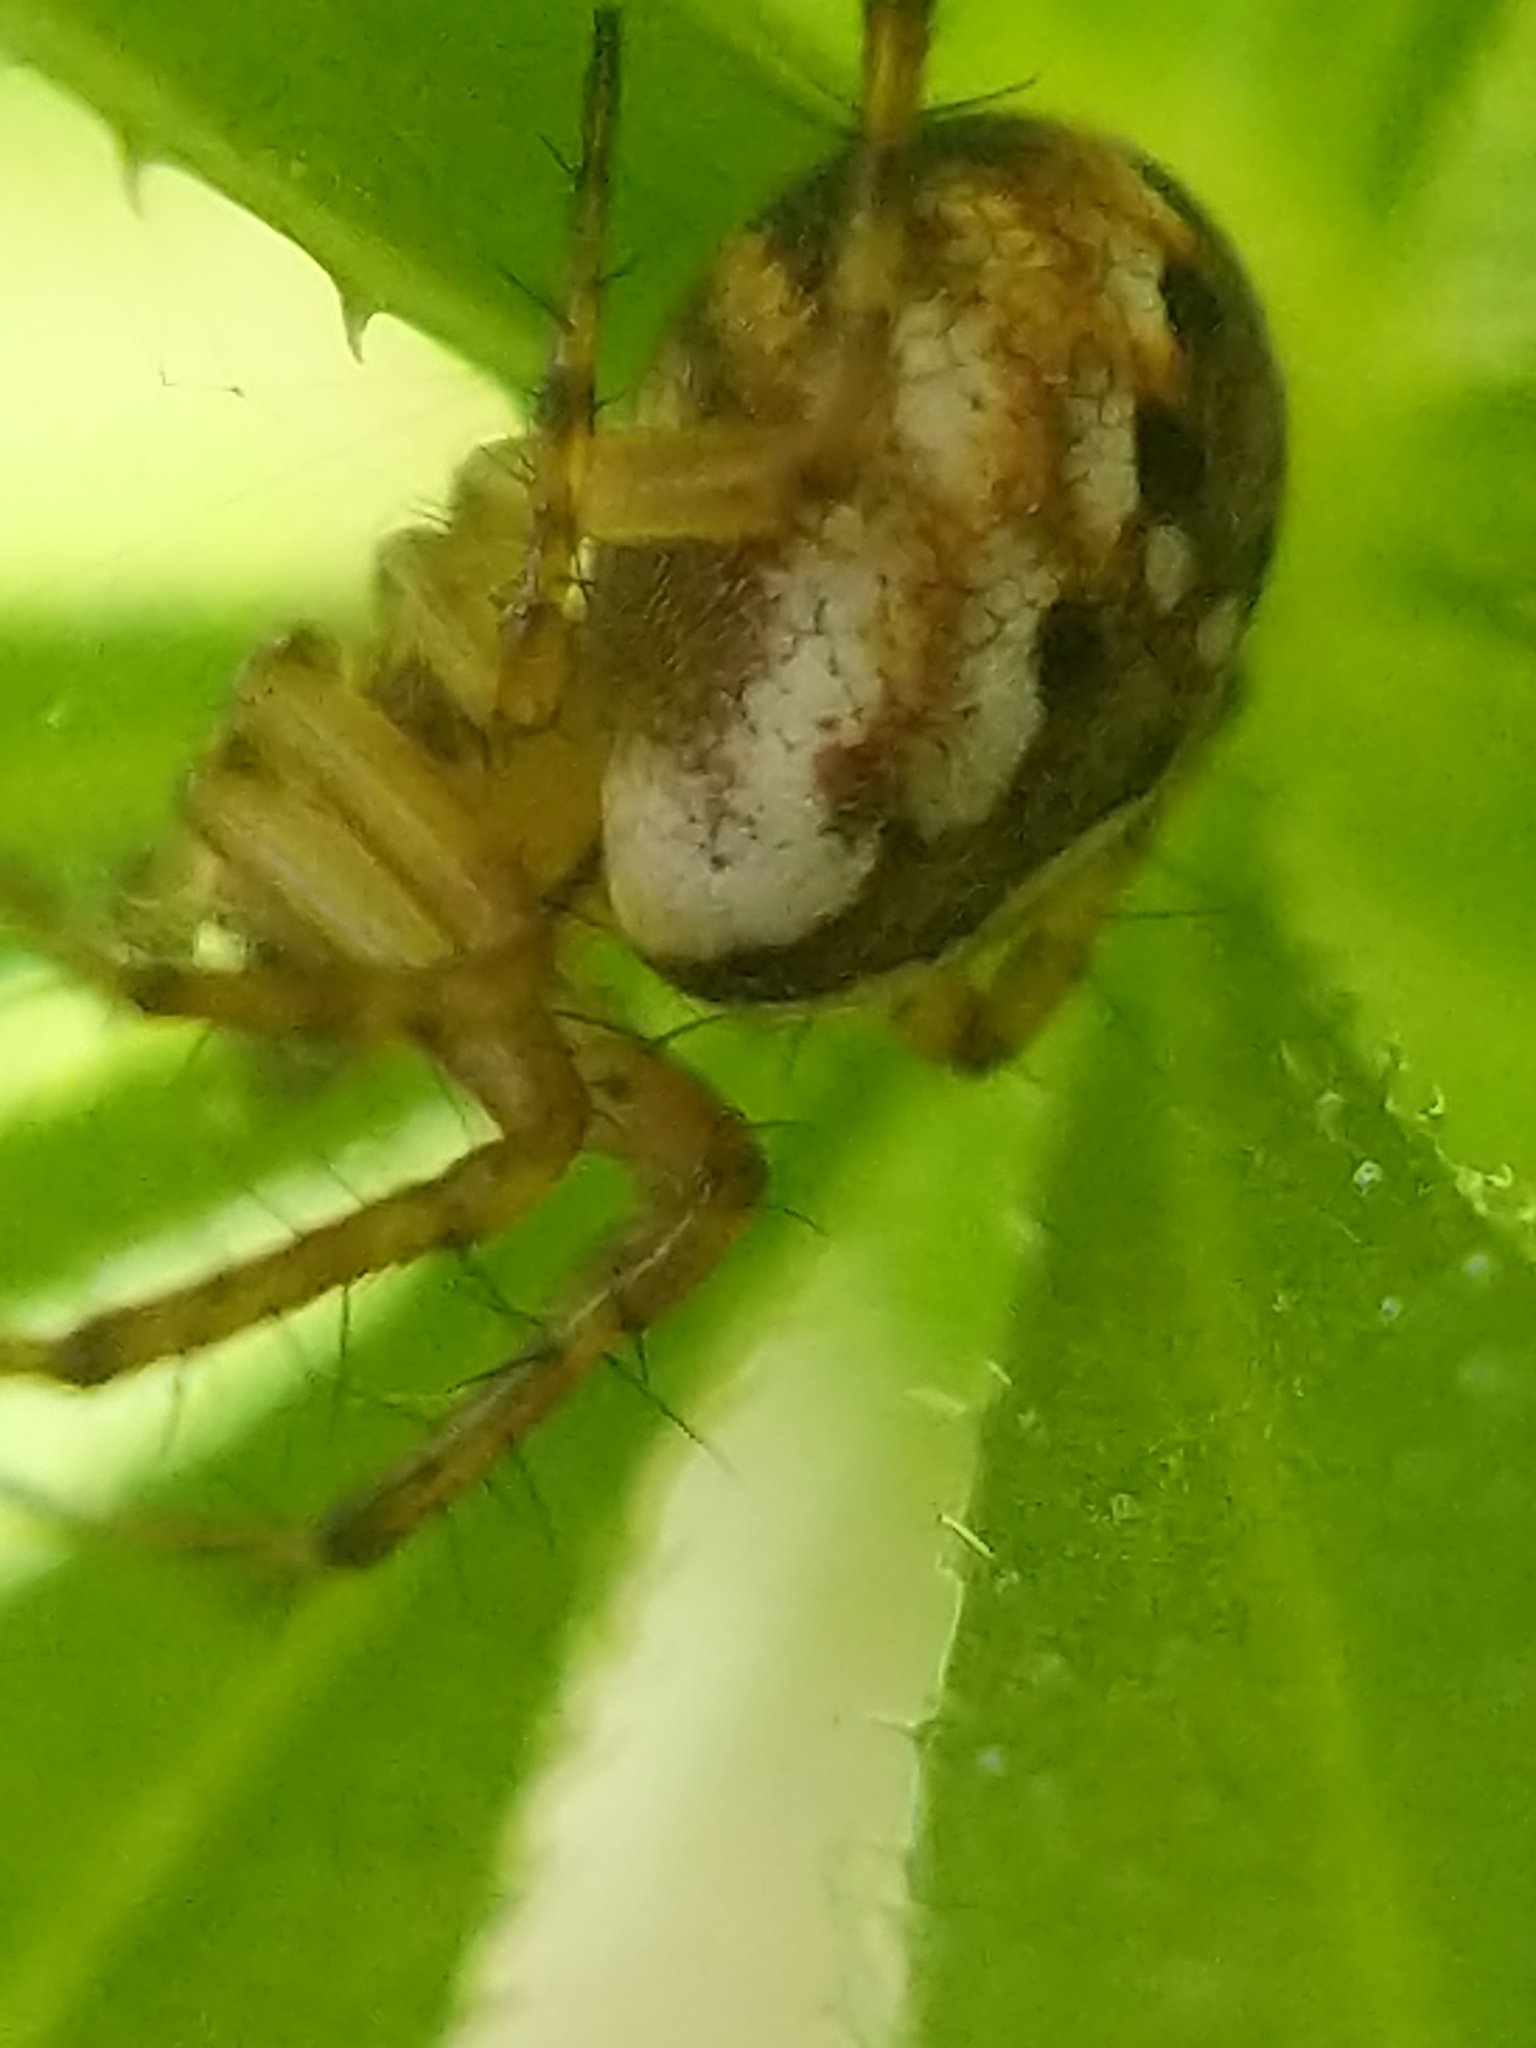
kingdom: Animalia
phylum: Arthropoda
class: Arachnida
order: Araneae
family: Araneidae
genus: Mangora
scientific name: Mangora placida
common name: Tuft-legged orbweaver
